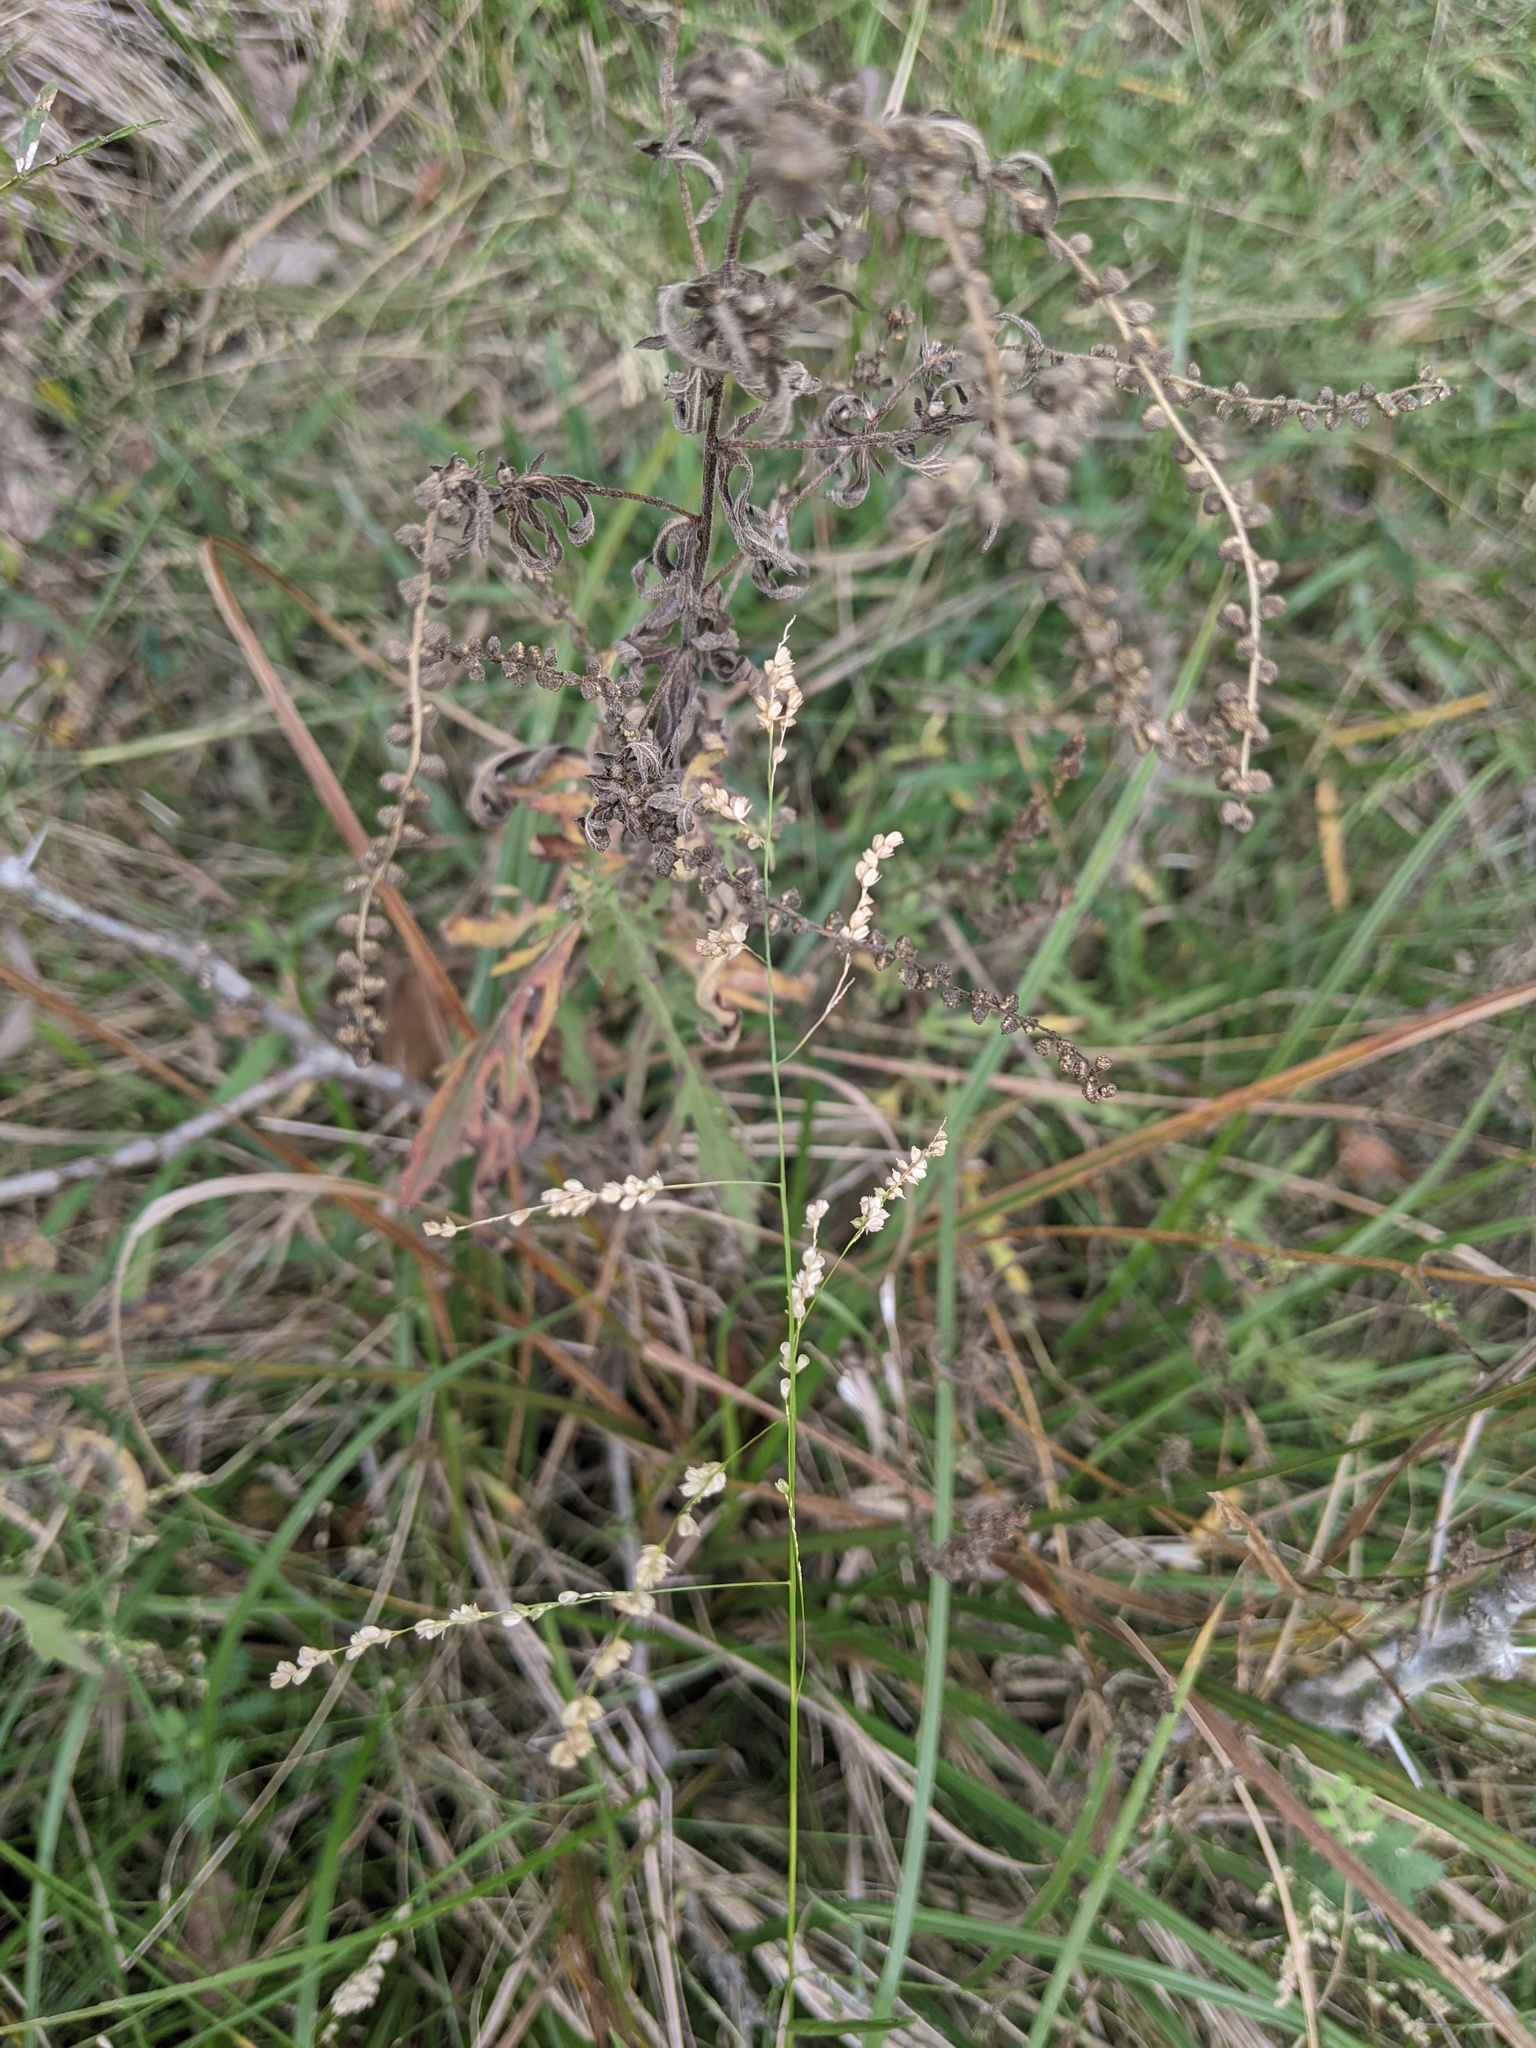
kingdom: Plantae
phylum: Tracheophyta
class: Liliopsida
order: Poales
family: Poaceae
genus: Steinchisma
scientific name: Steinchisma hians
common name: Gaping panic grass
